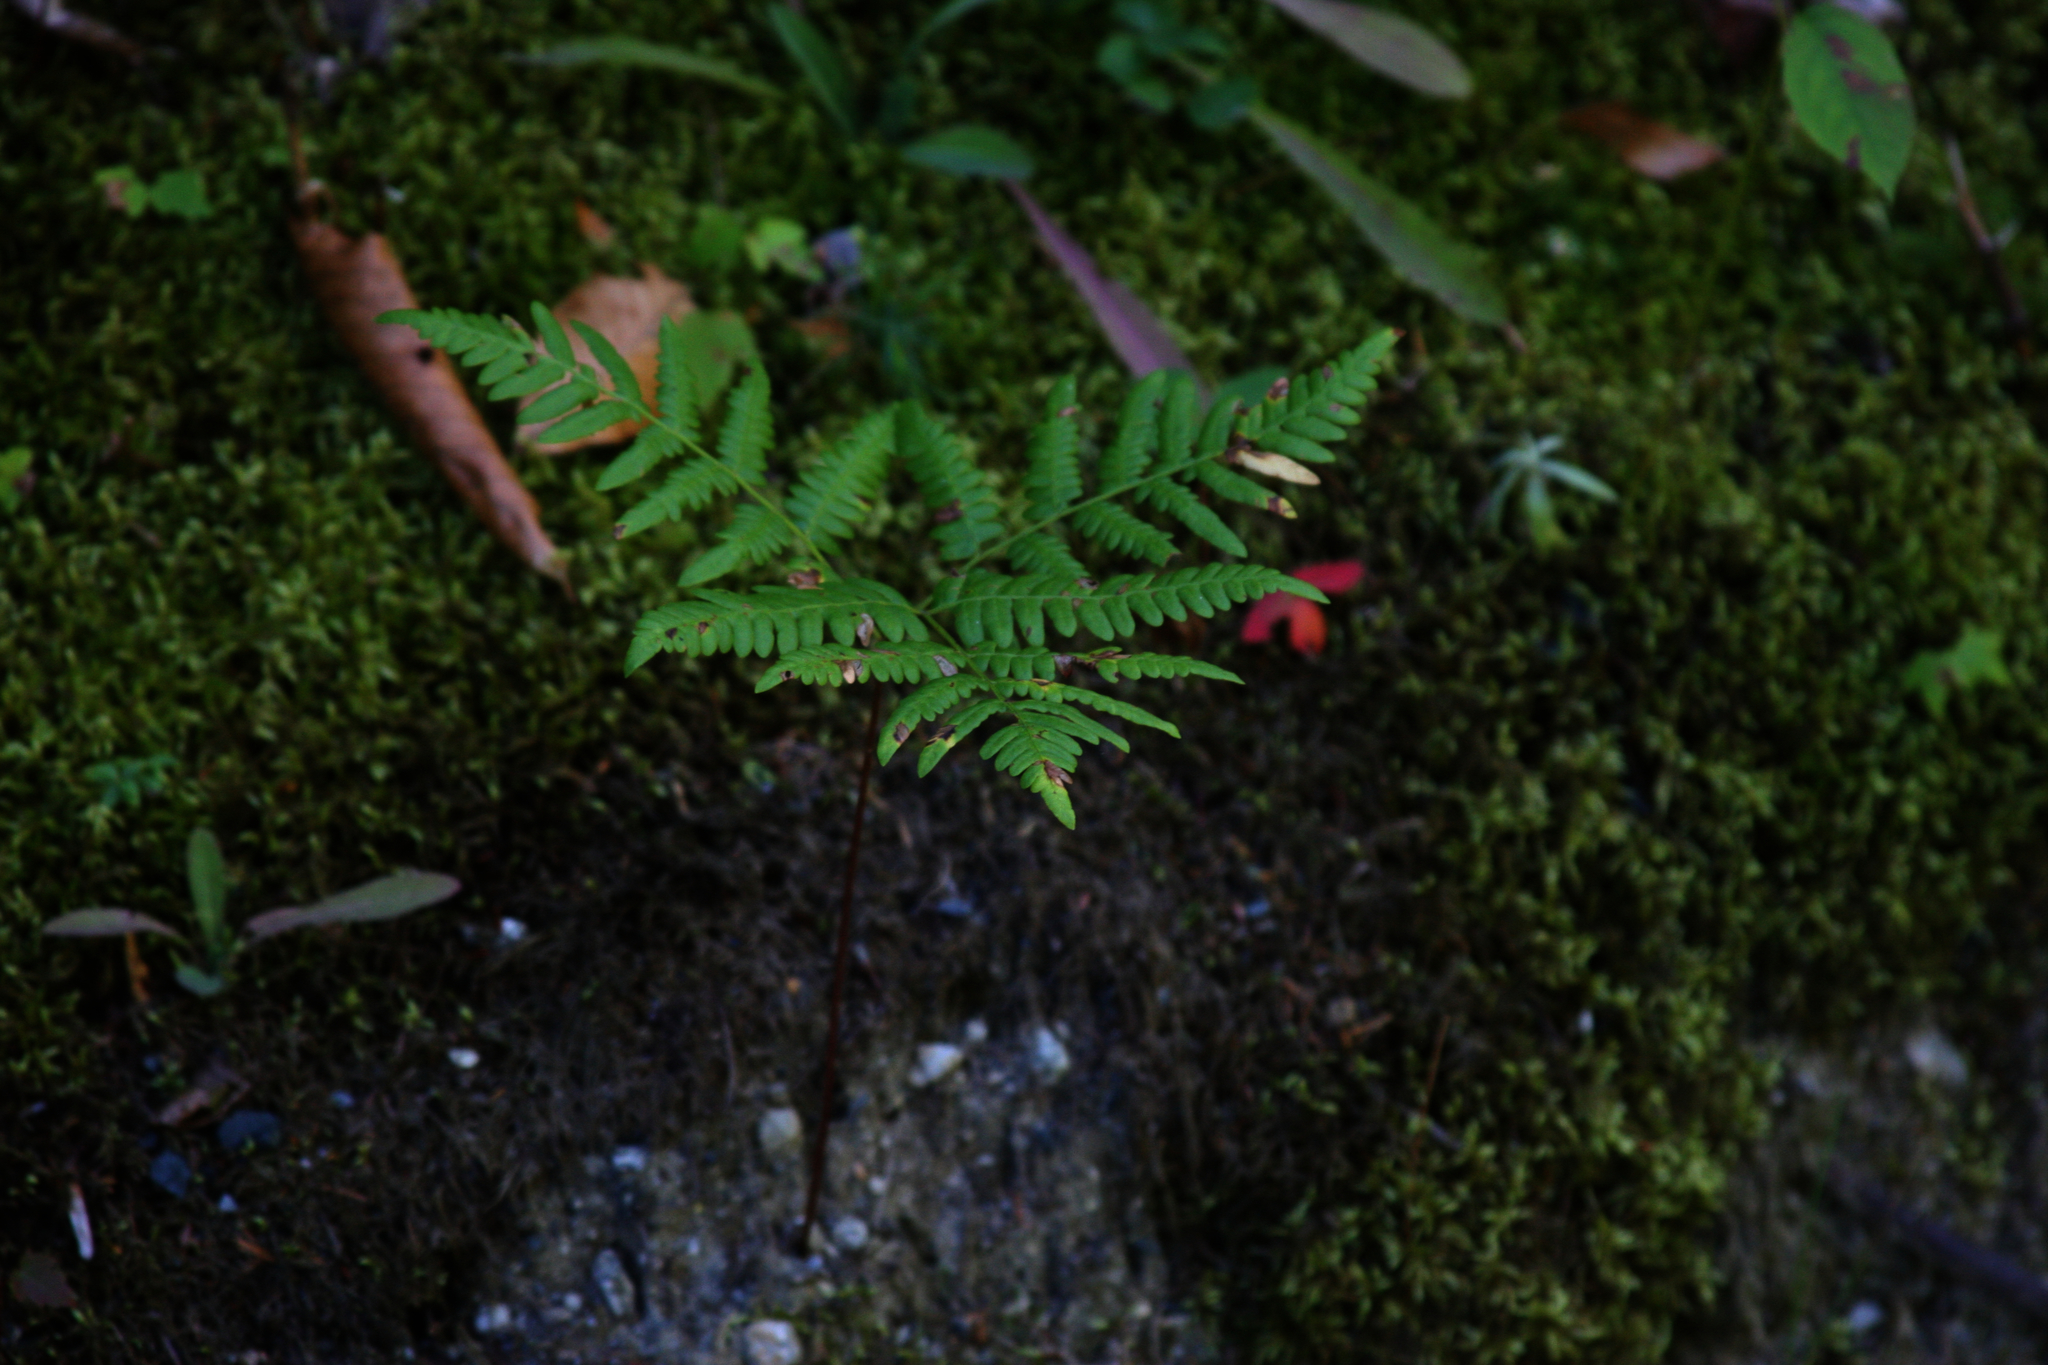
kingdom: Plantae
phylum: Tracheophyta
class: Polypodiopsida
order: Polypodiales
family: Dennstaedtiaceae
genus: Pteridium
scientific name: Pteridium aquilinum
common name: Bracken
